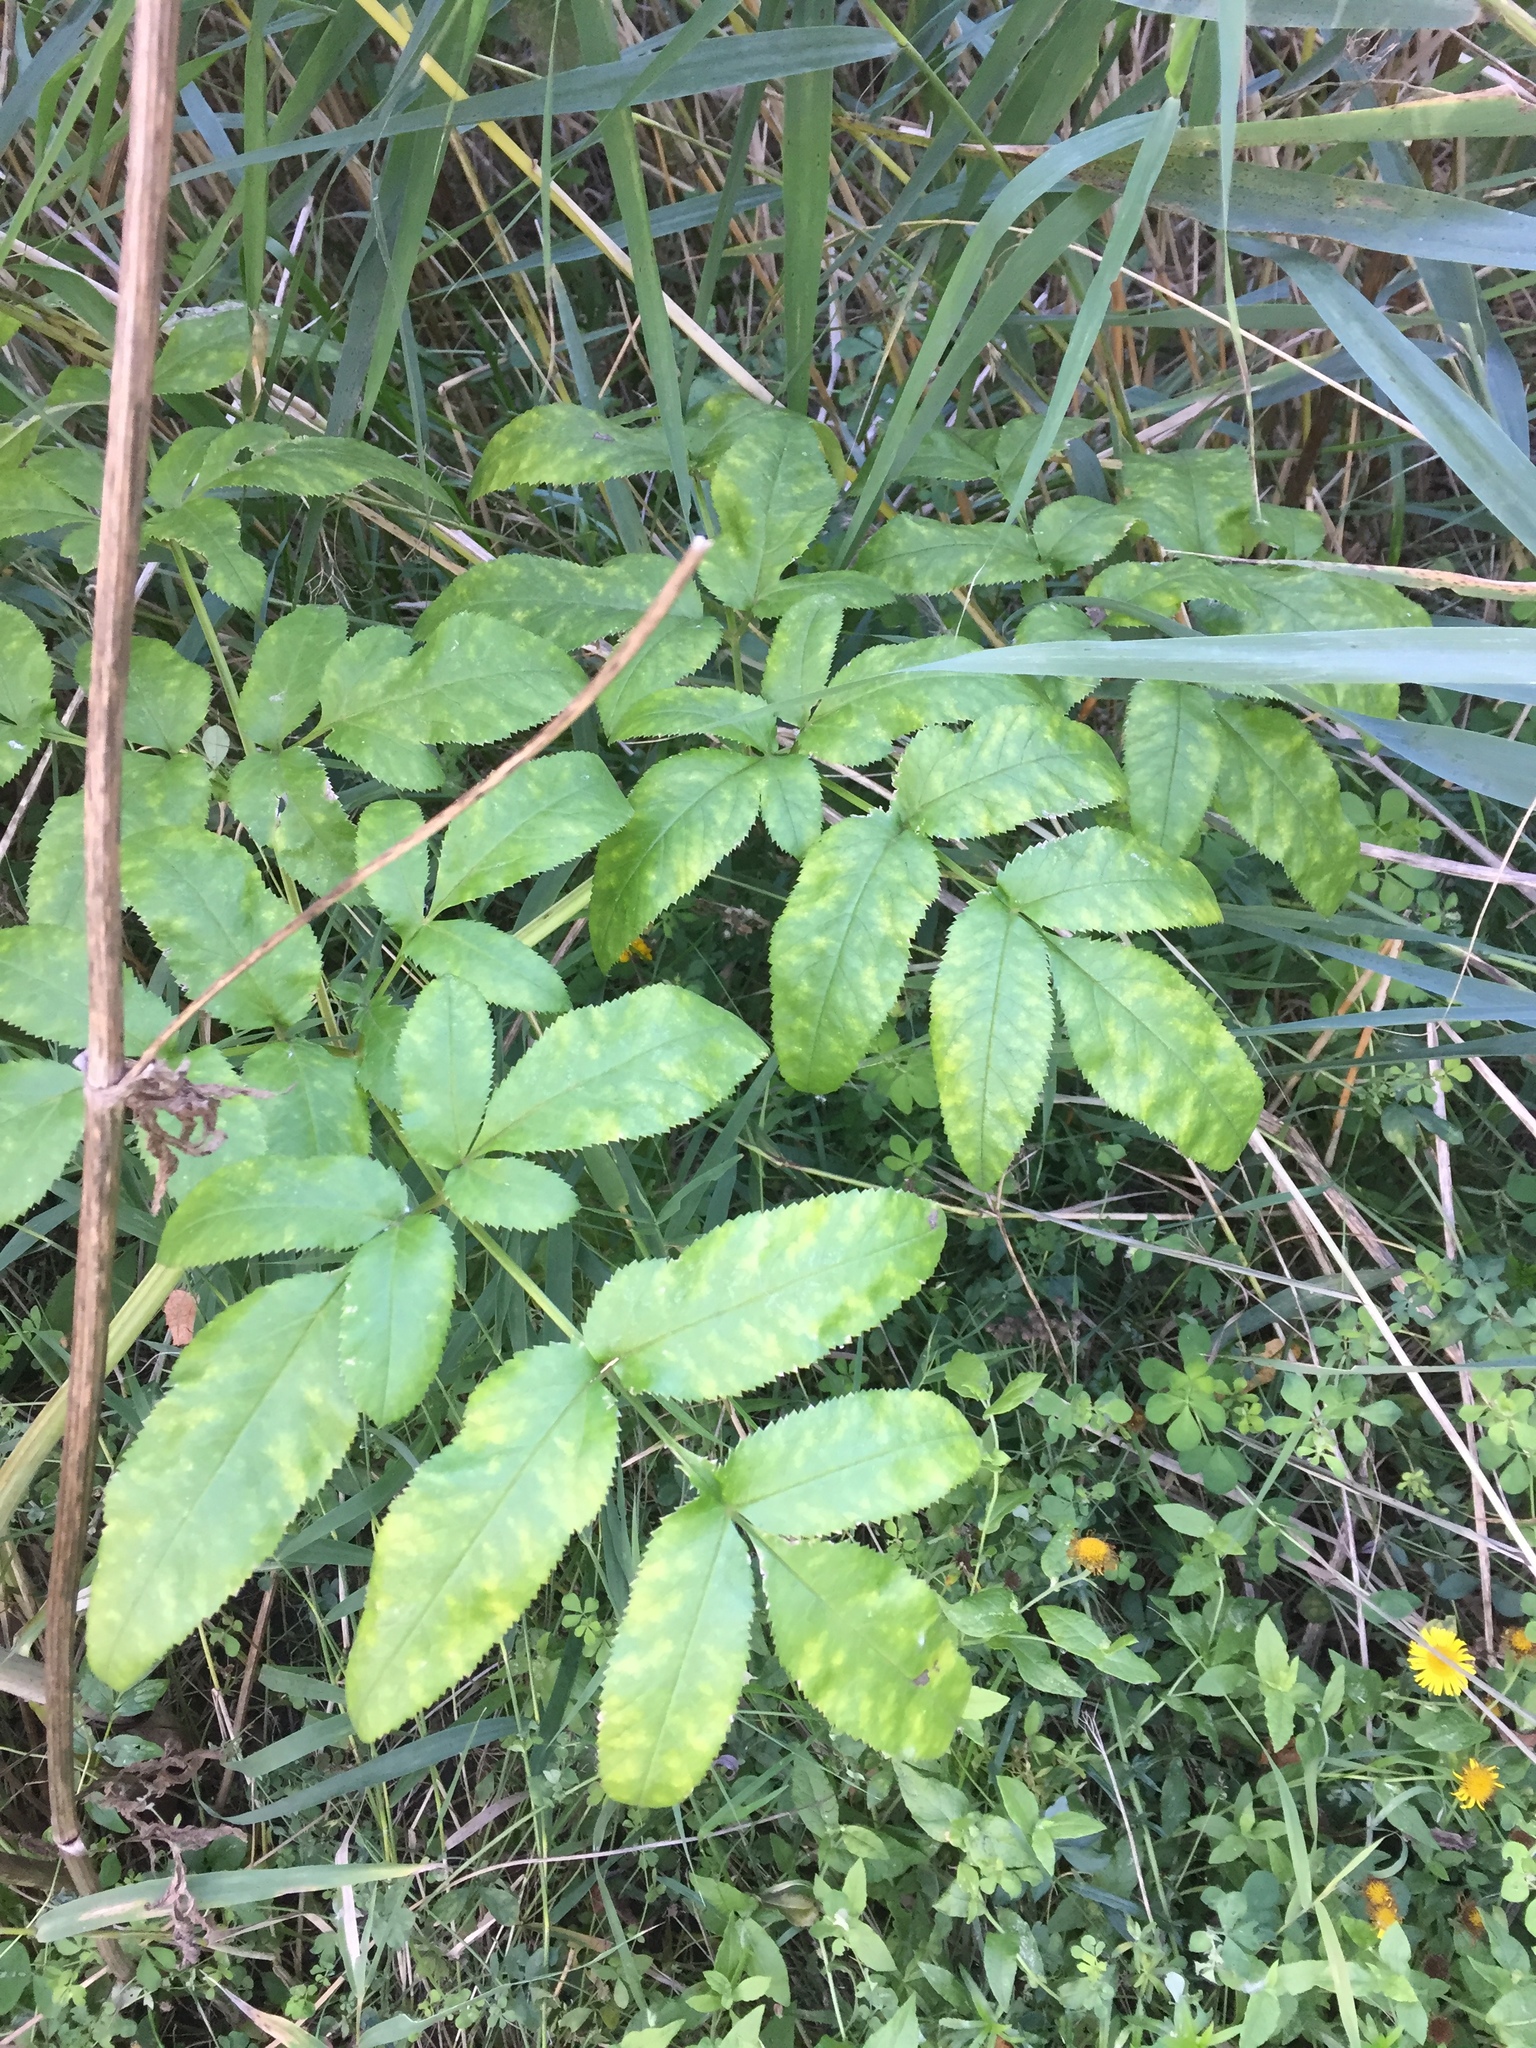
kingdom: Plantae
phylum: Tracheophyta
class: Magnoliopsida
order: Apiales
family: Apiaceae
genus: Angelica
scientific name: Angelica sylvestris
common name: Wild angelica
